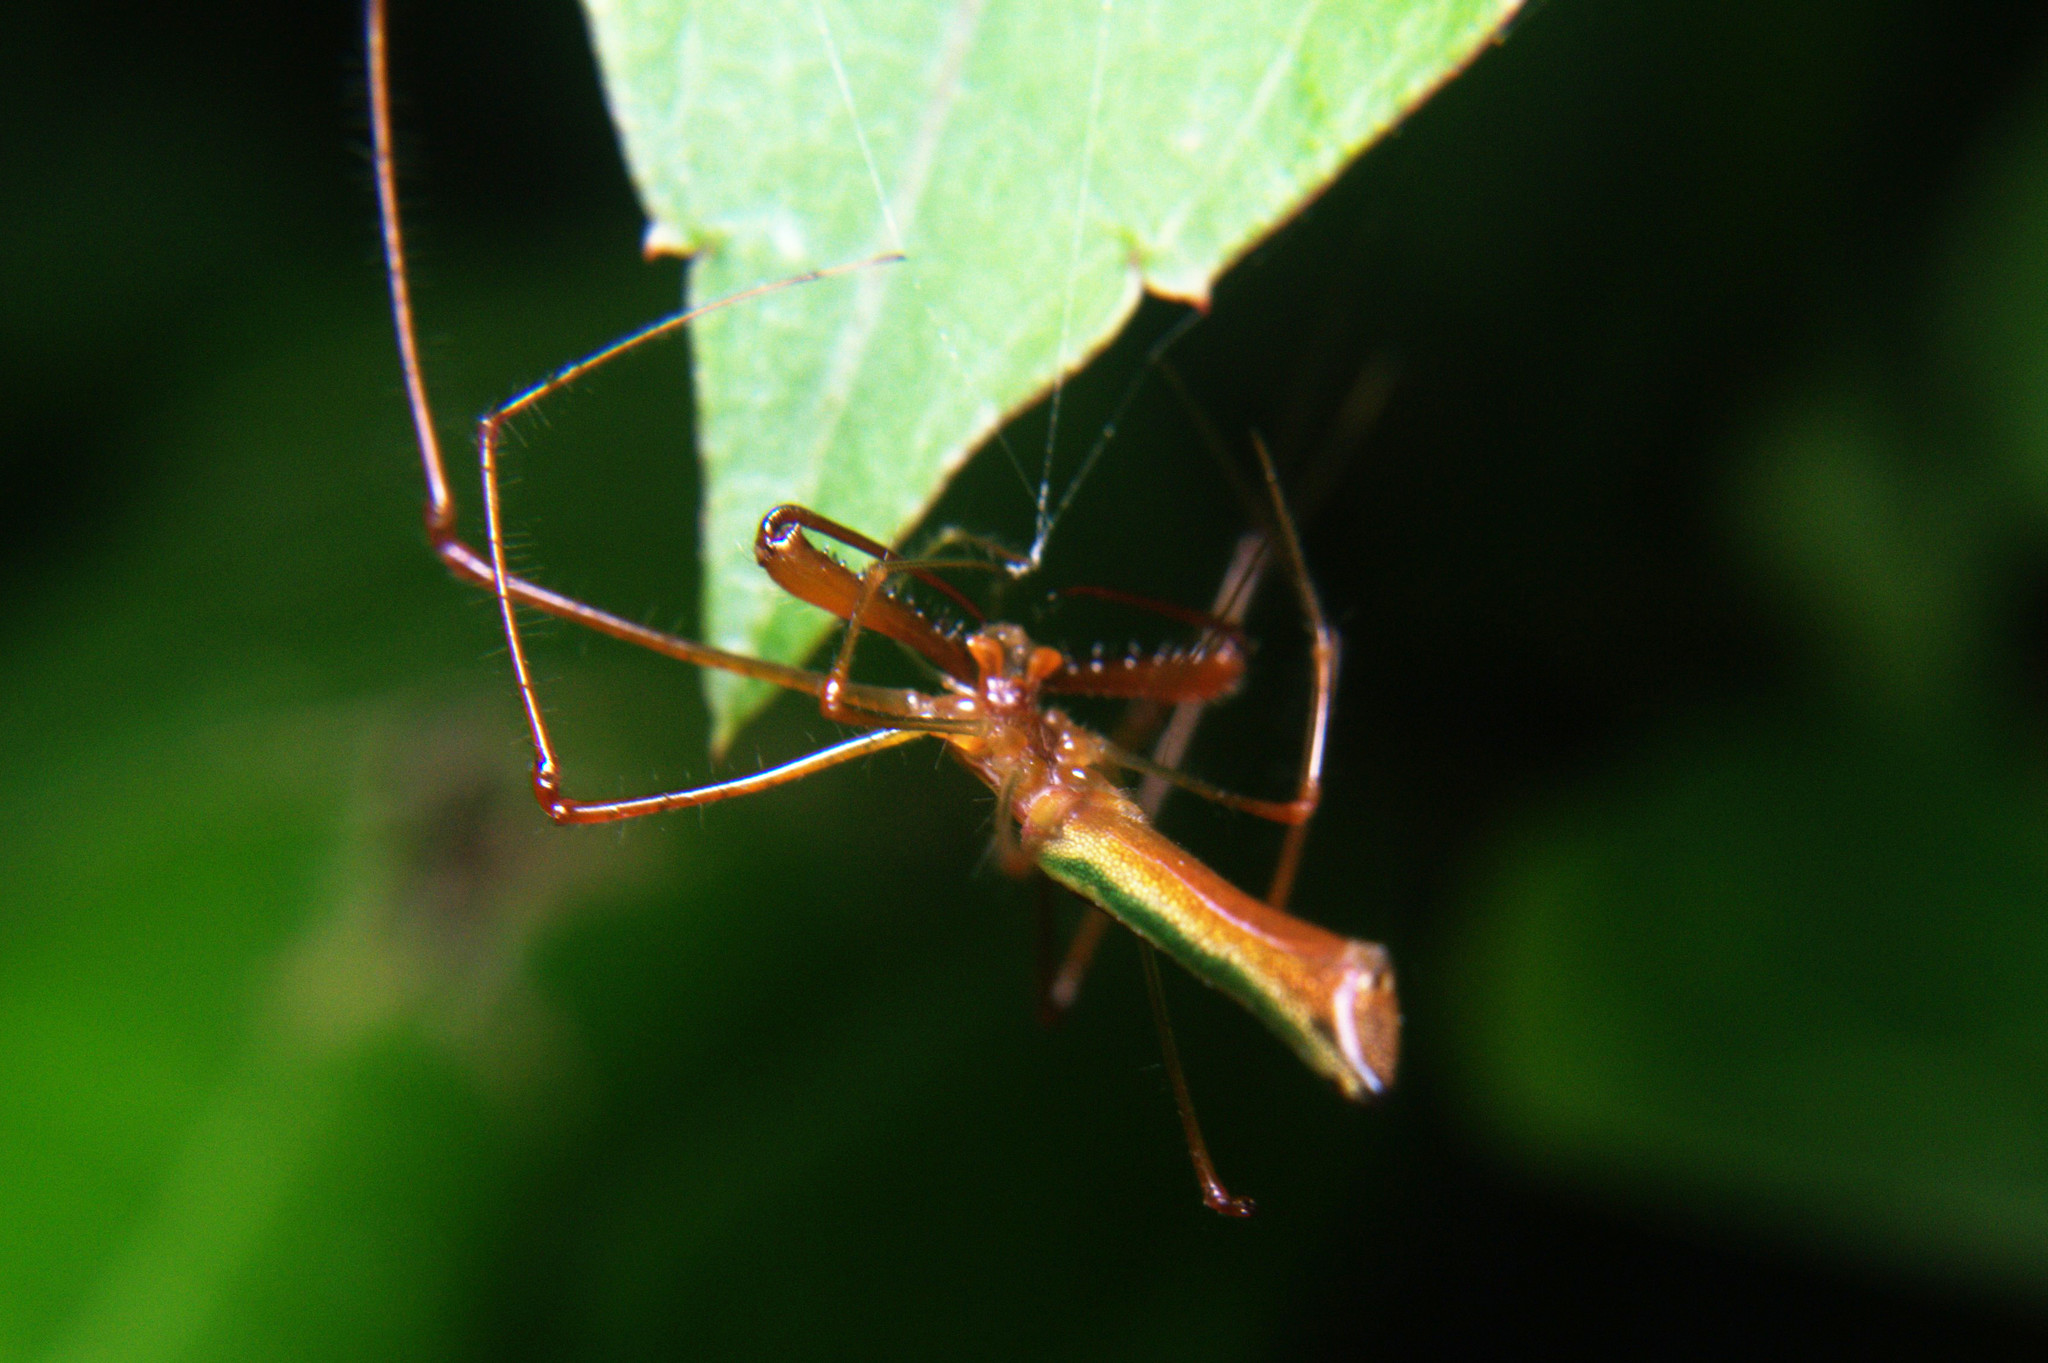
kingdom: Animalia
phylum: Arthropoda
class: Arachnida
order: Araneae
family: Tetragnathidae
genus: Tetragnatha
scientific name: Tetragnatha viridorufa
